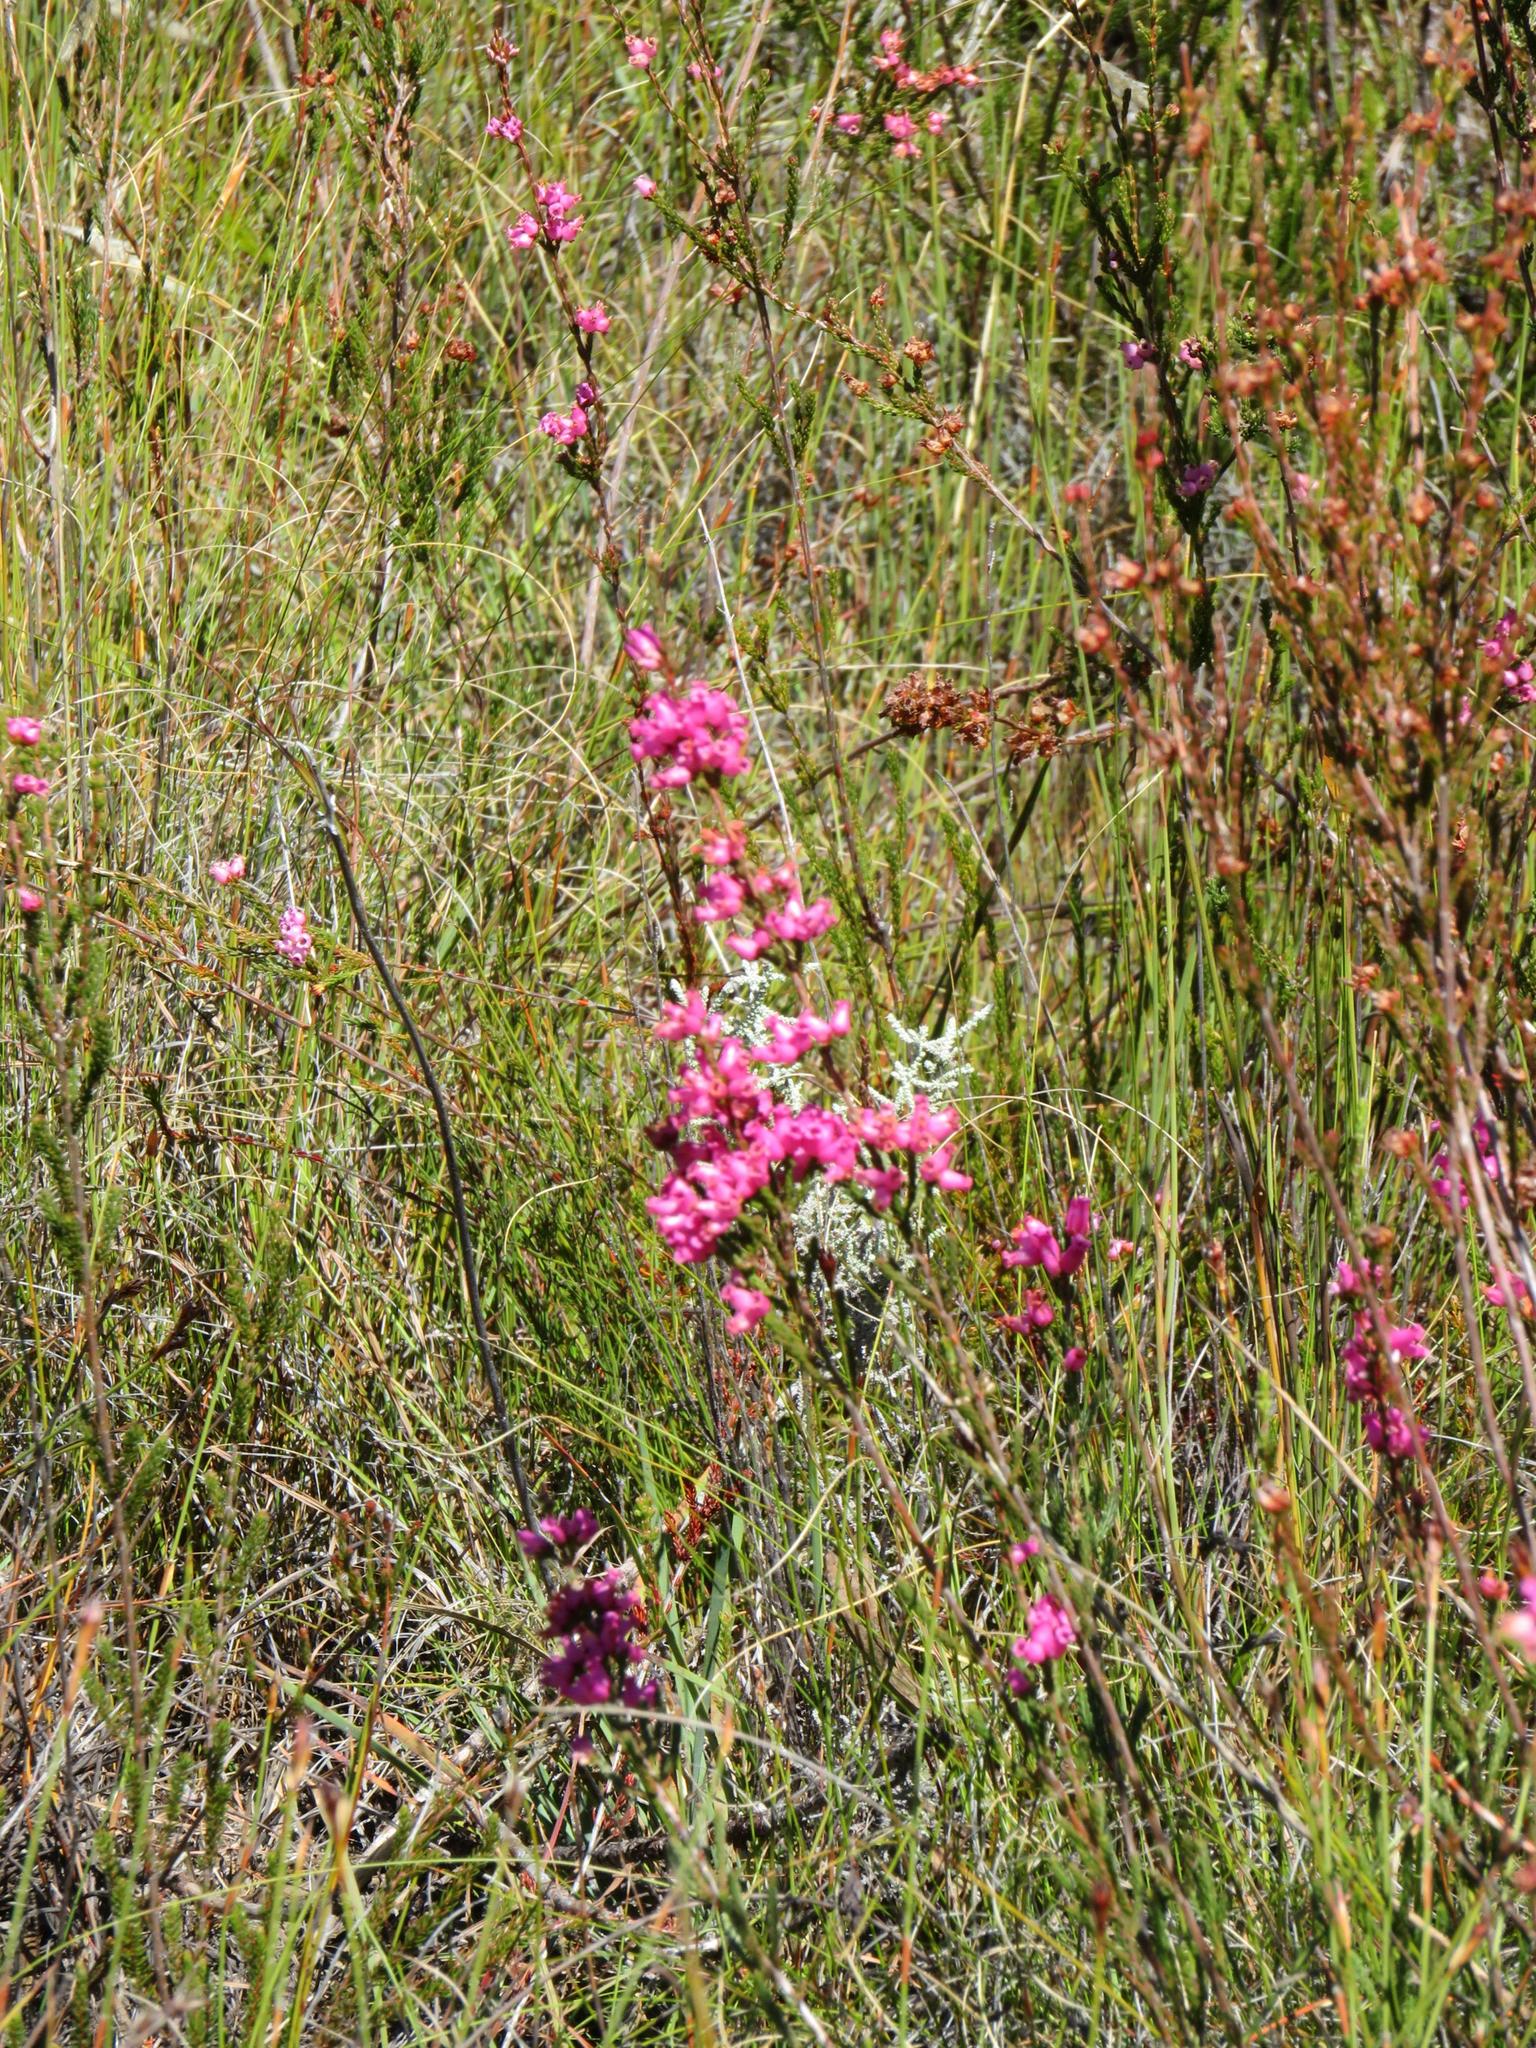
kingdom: Plantae
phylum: Tracheophyta
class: Magnoliopsida
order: Ericales
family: Ericaceae
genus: Erica
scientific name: Erica daphniflora
